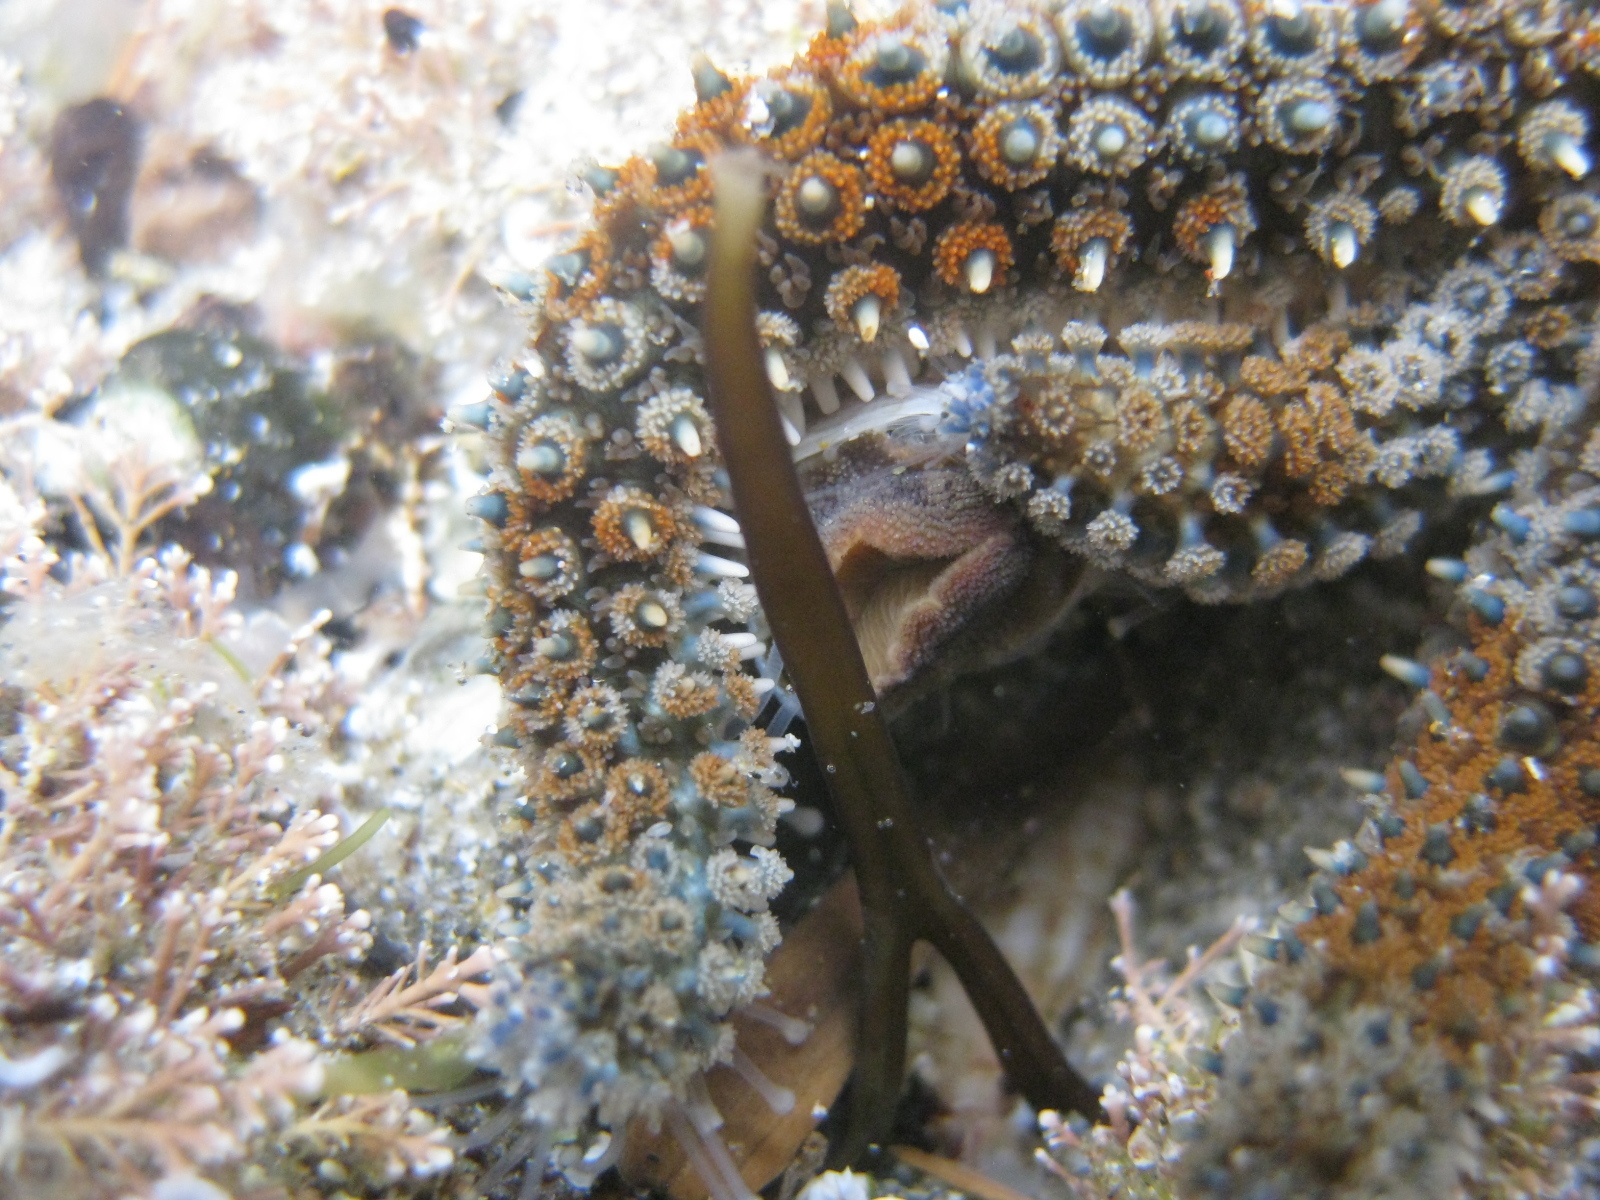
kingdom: Animalia
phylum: Echinodermata
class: Asteroidea
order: Forcipulatida
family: Asteriidae
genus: Coscinasterias
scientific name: Coscinasterias muricata
